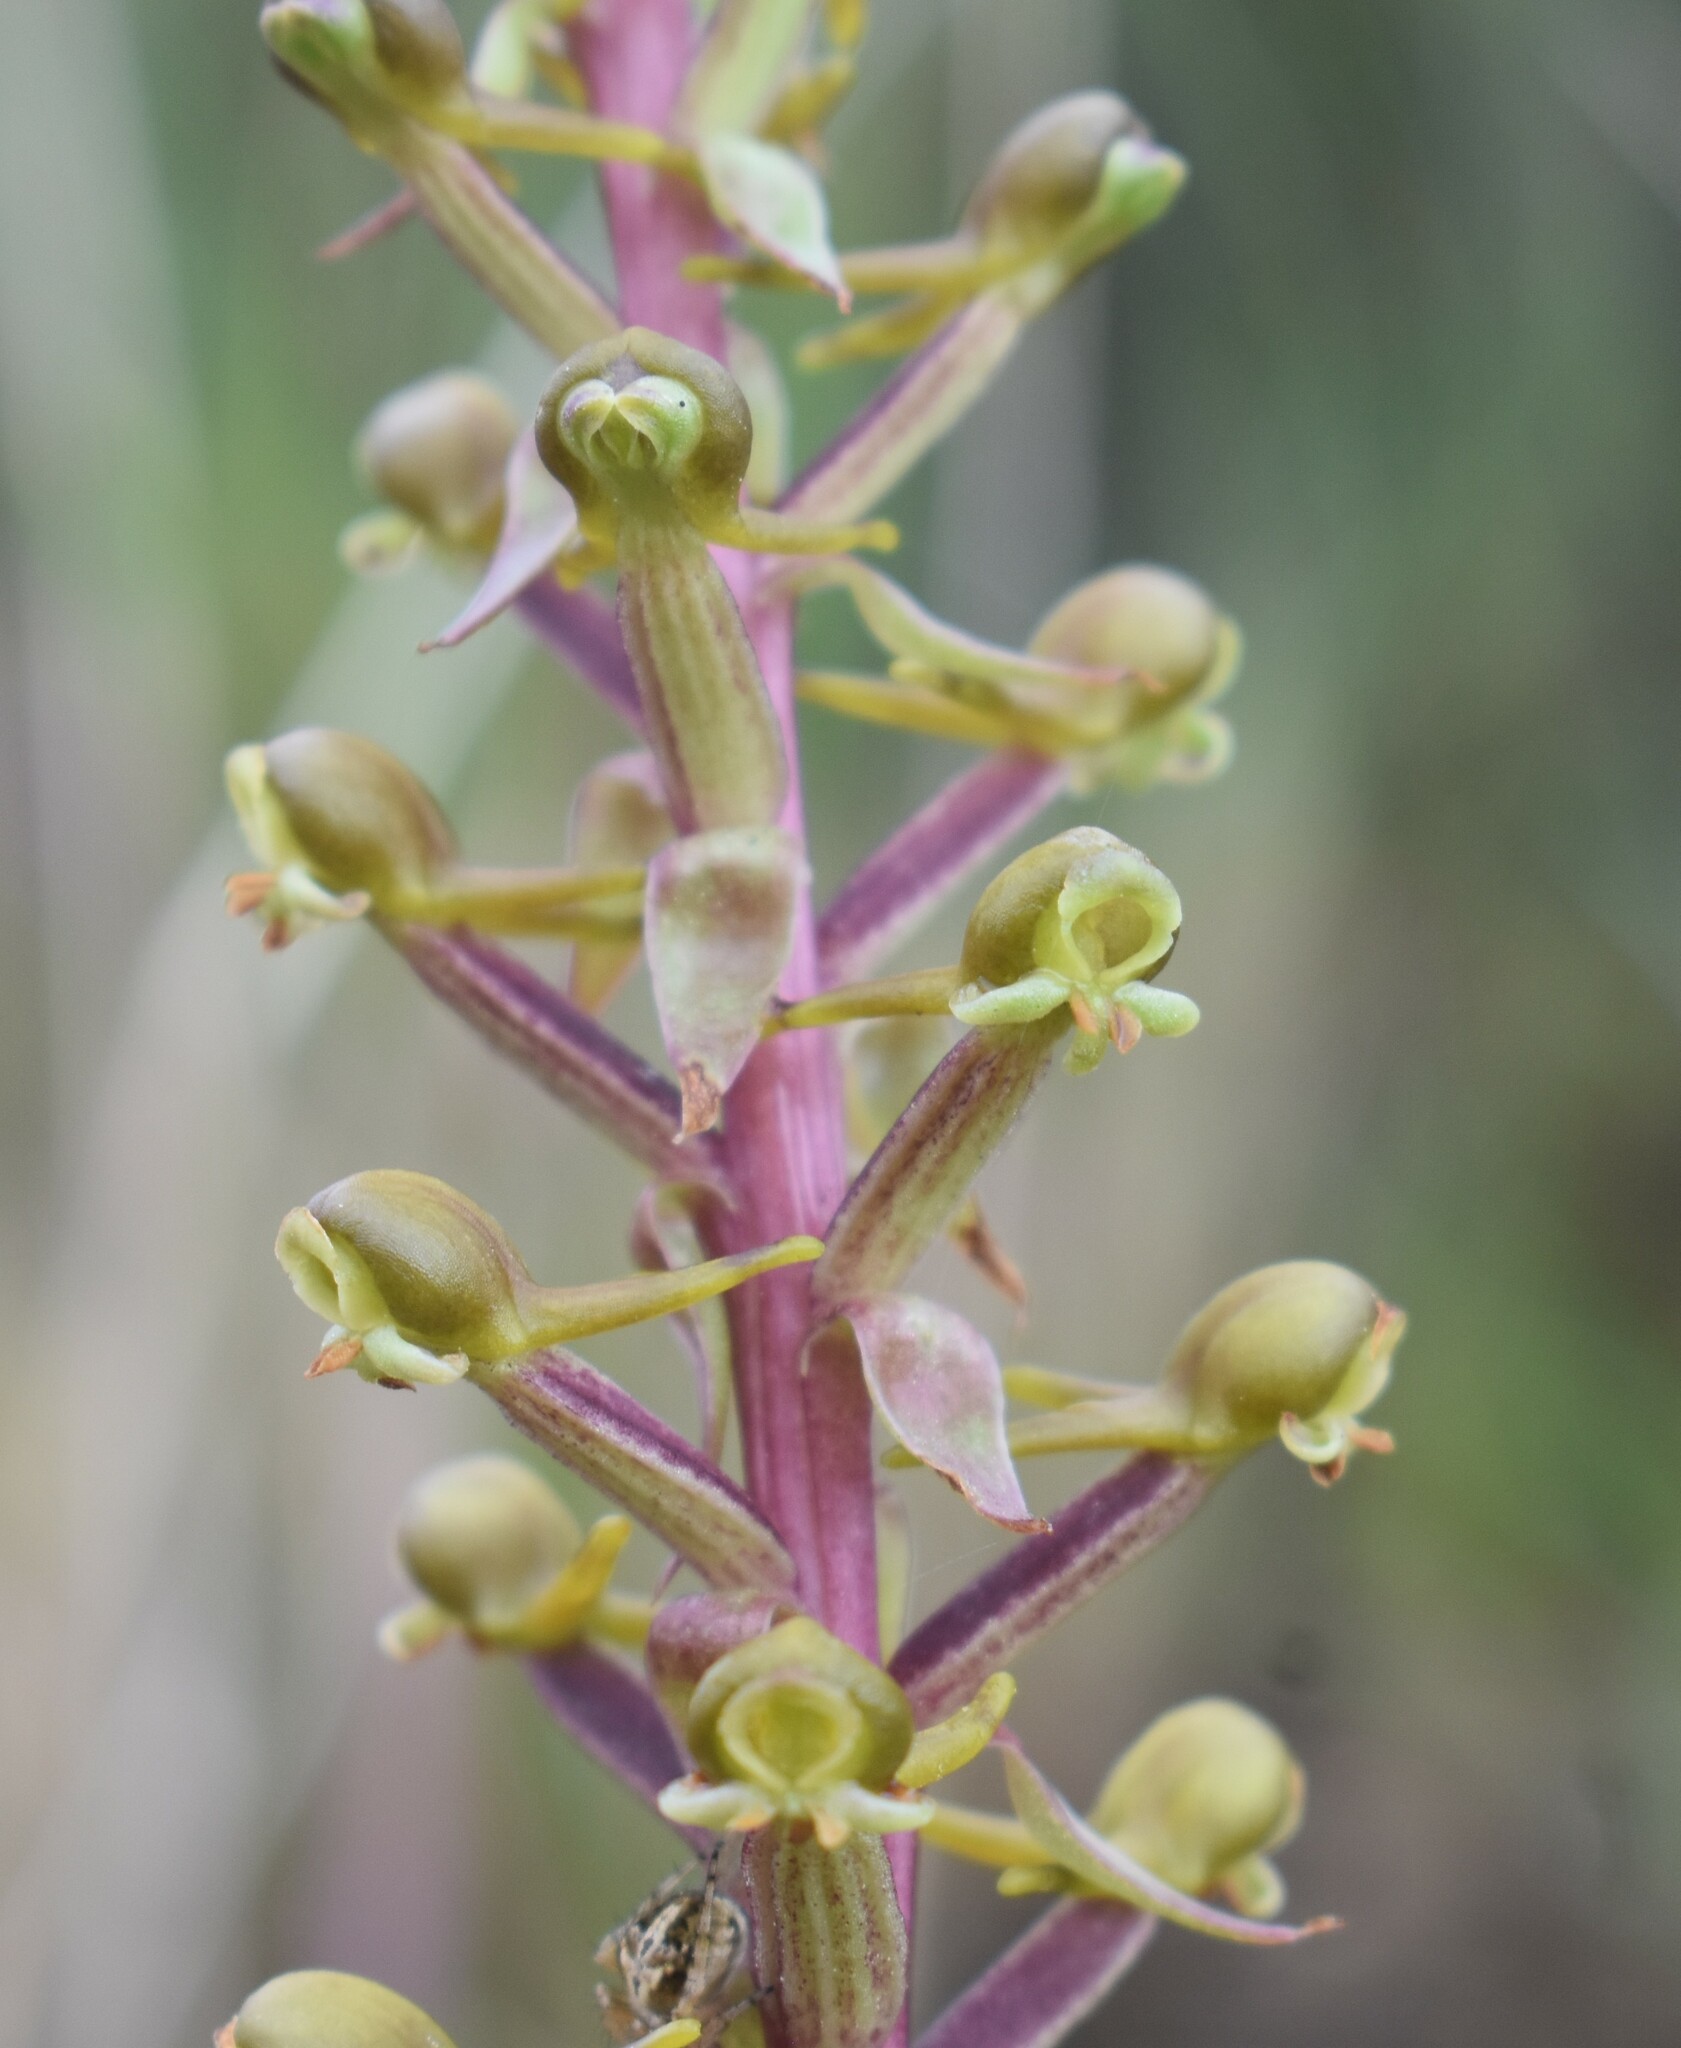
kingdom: Plantae
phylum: Tracheophyta
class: Liliopsida
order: Asparagales
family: Orchidaceae
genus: Satyrium
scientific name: Satyrium parviflorum
